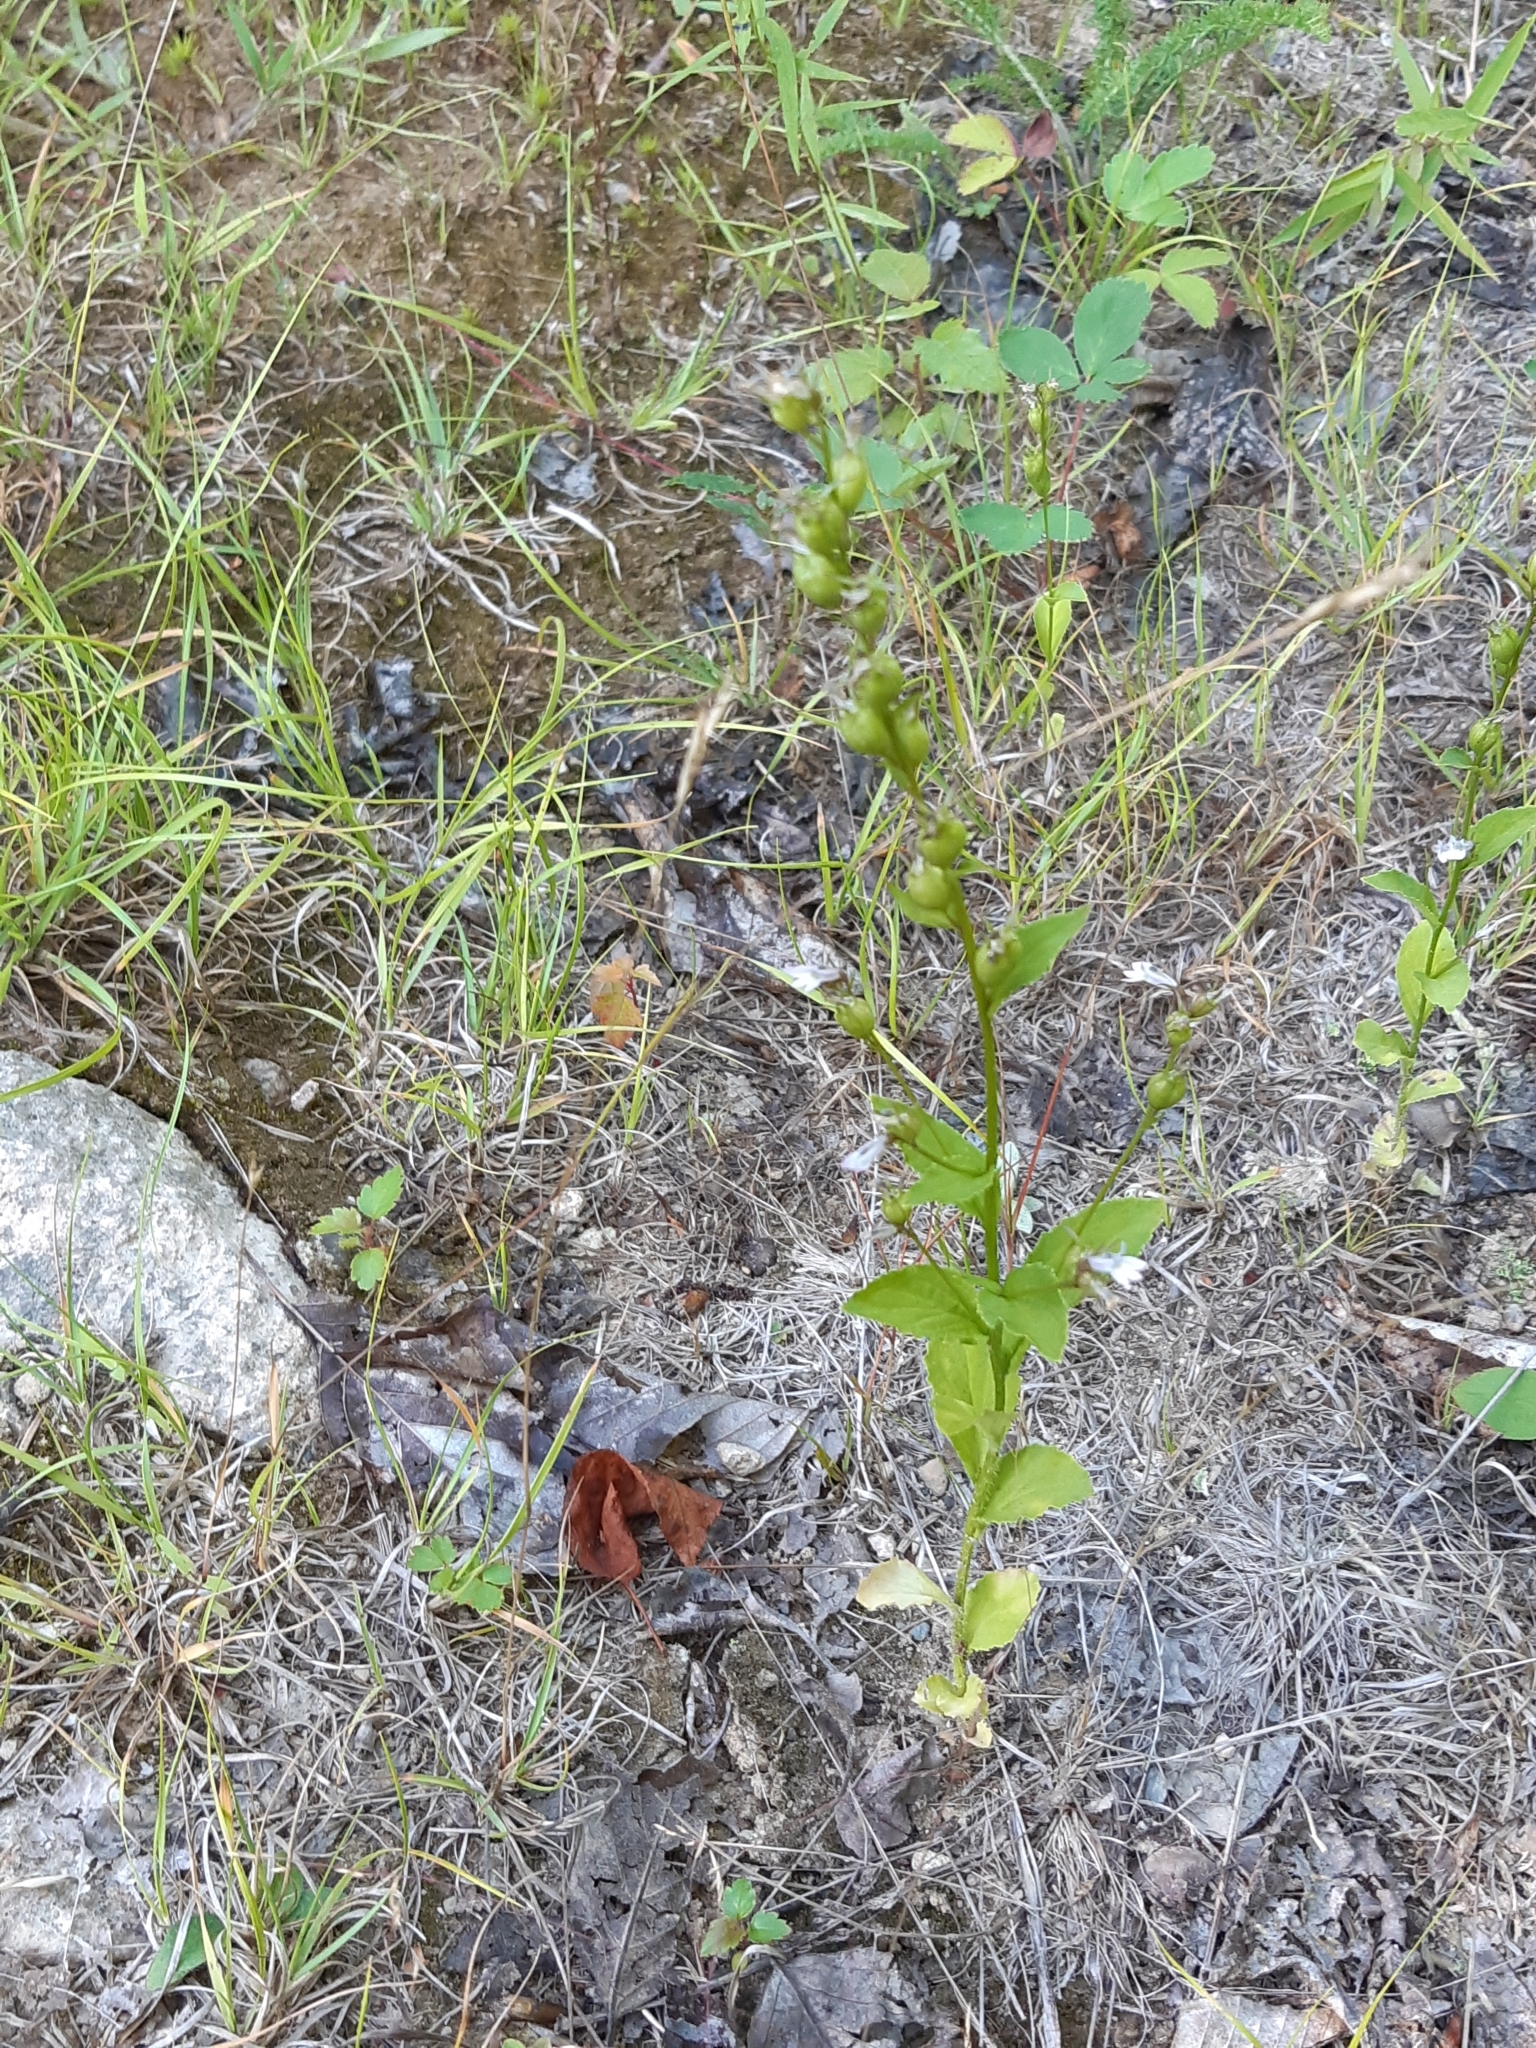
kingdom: Plantae
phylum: Tracheophyta
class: Magnoliopsida
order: Asterales
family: Campanulaceae
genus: Lobelia
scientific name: Lobelia inflata
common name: Indian tobacco
